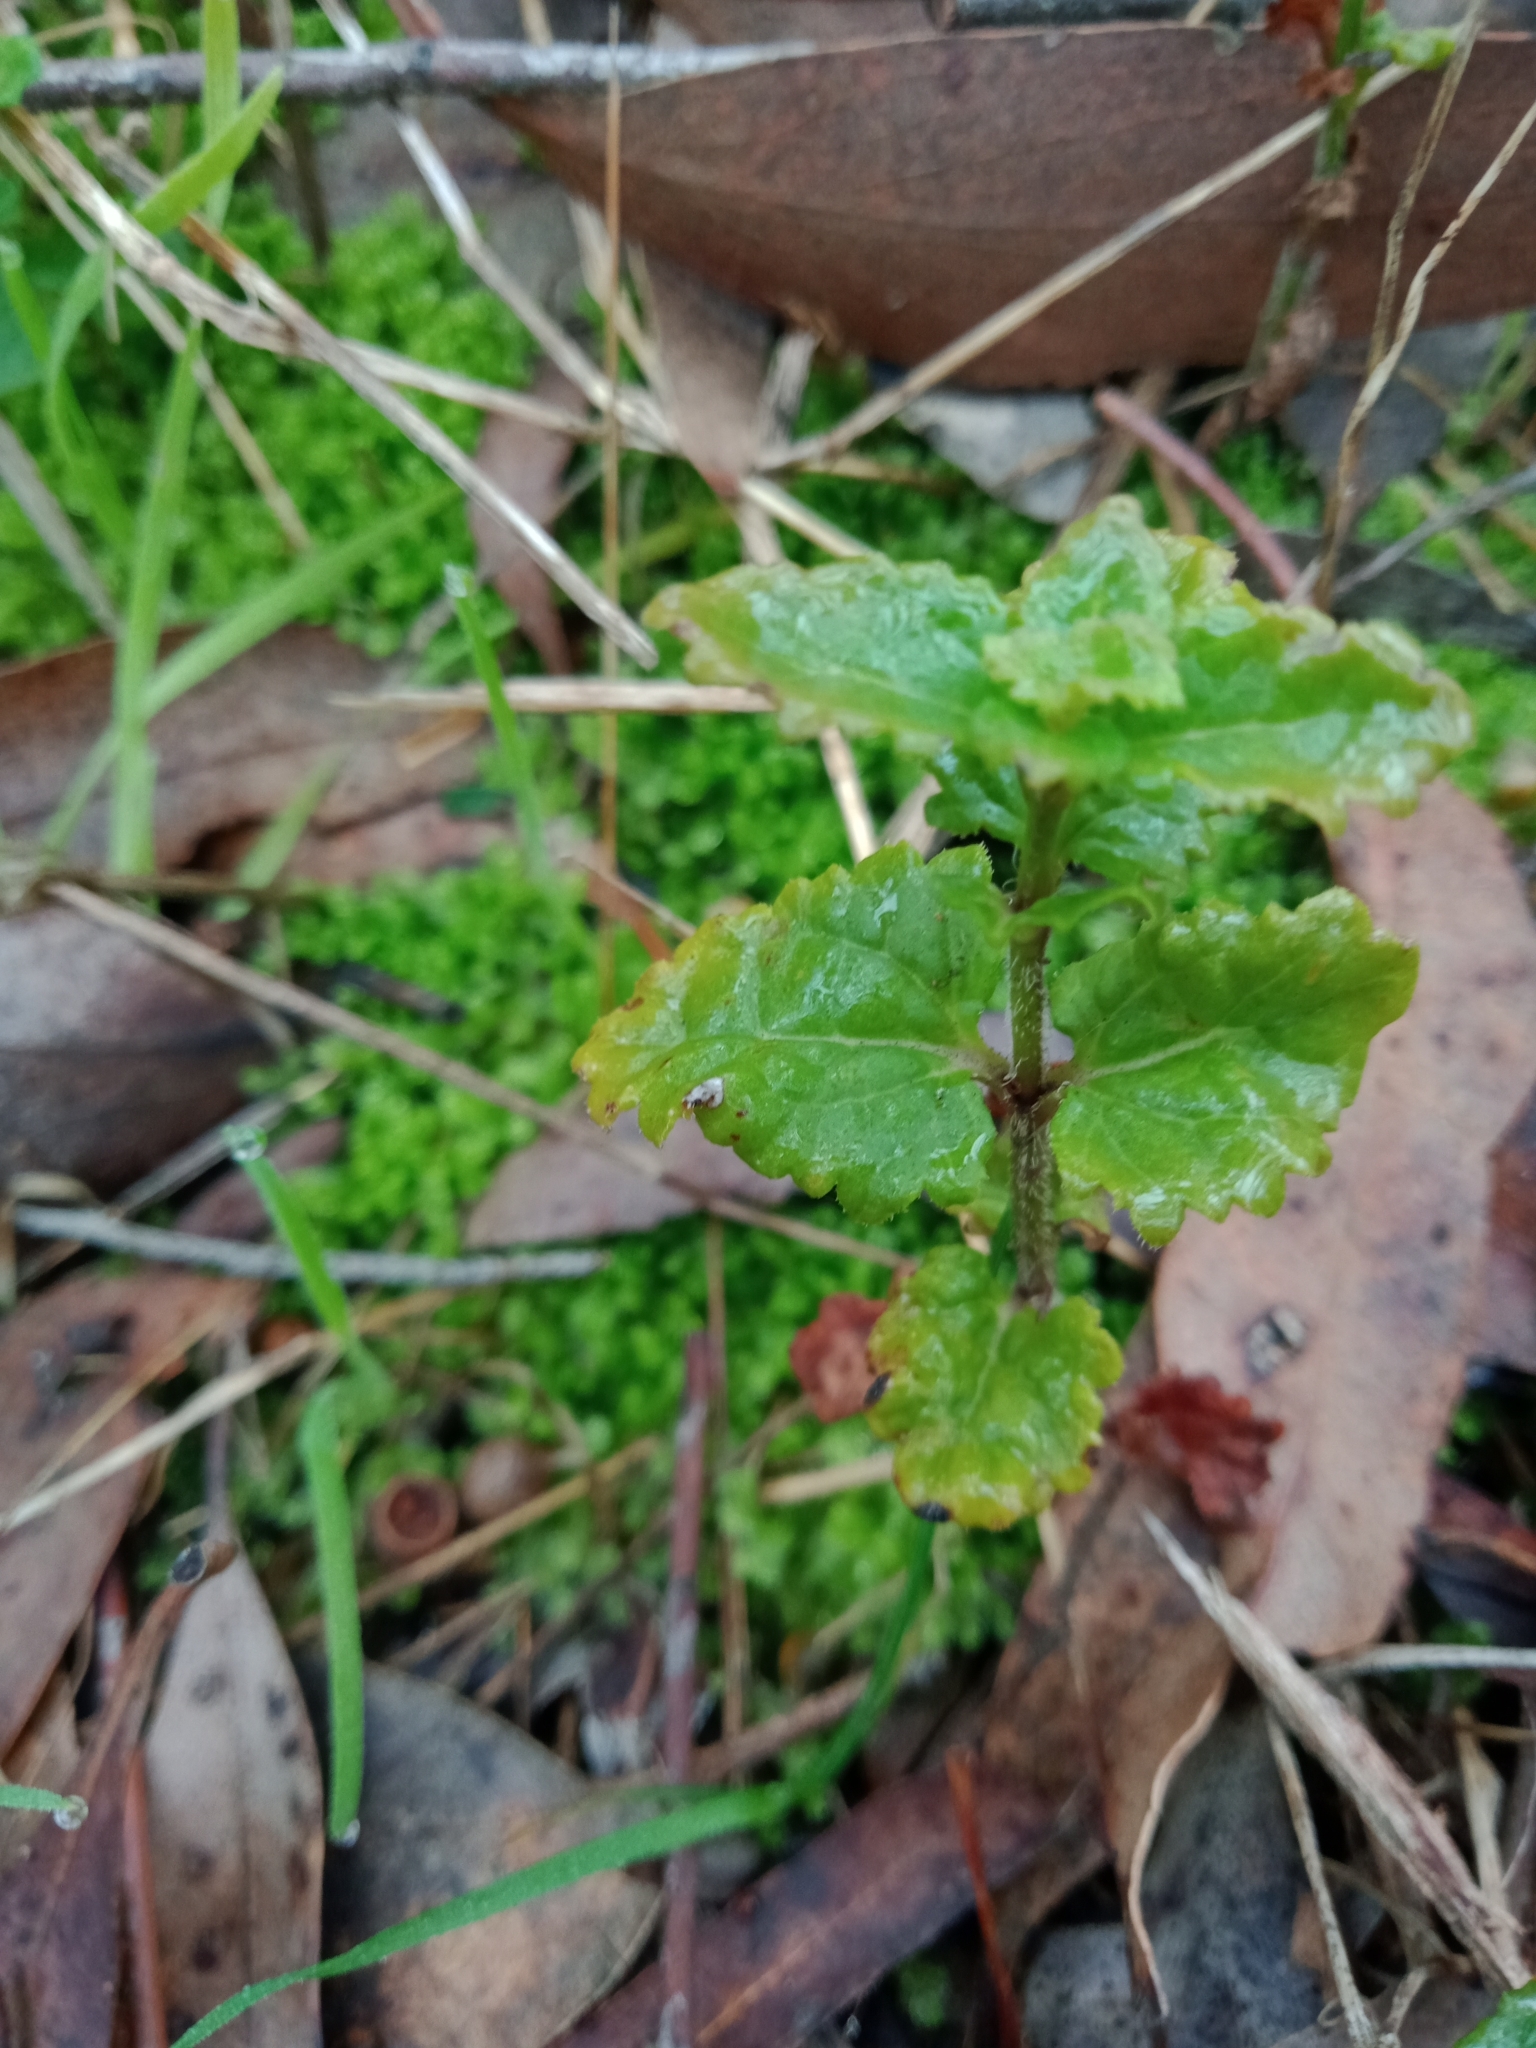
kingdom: Plantae
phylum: Tracheophyta
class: Magnoliopsida
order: Lamiales
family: Plantaginaceae
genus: Veronica
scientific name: Veronica calycina
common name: Cup speedwell
